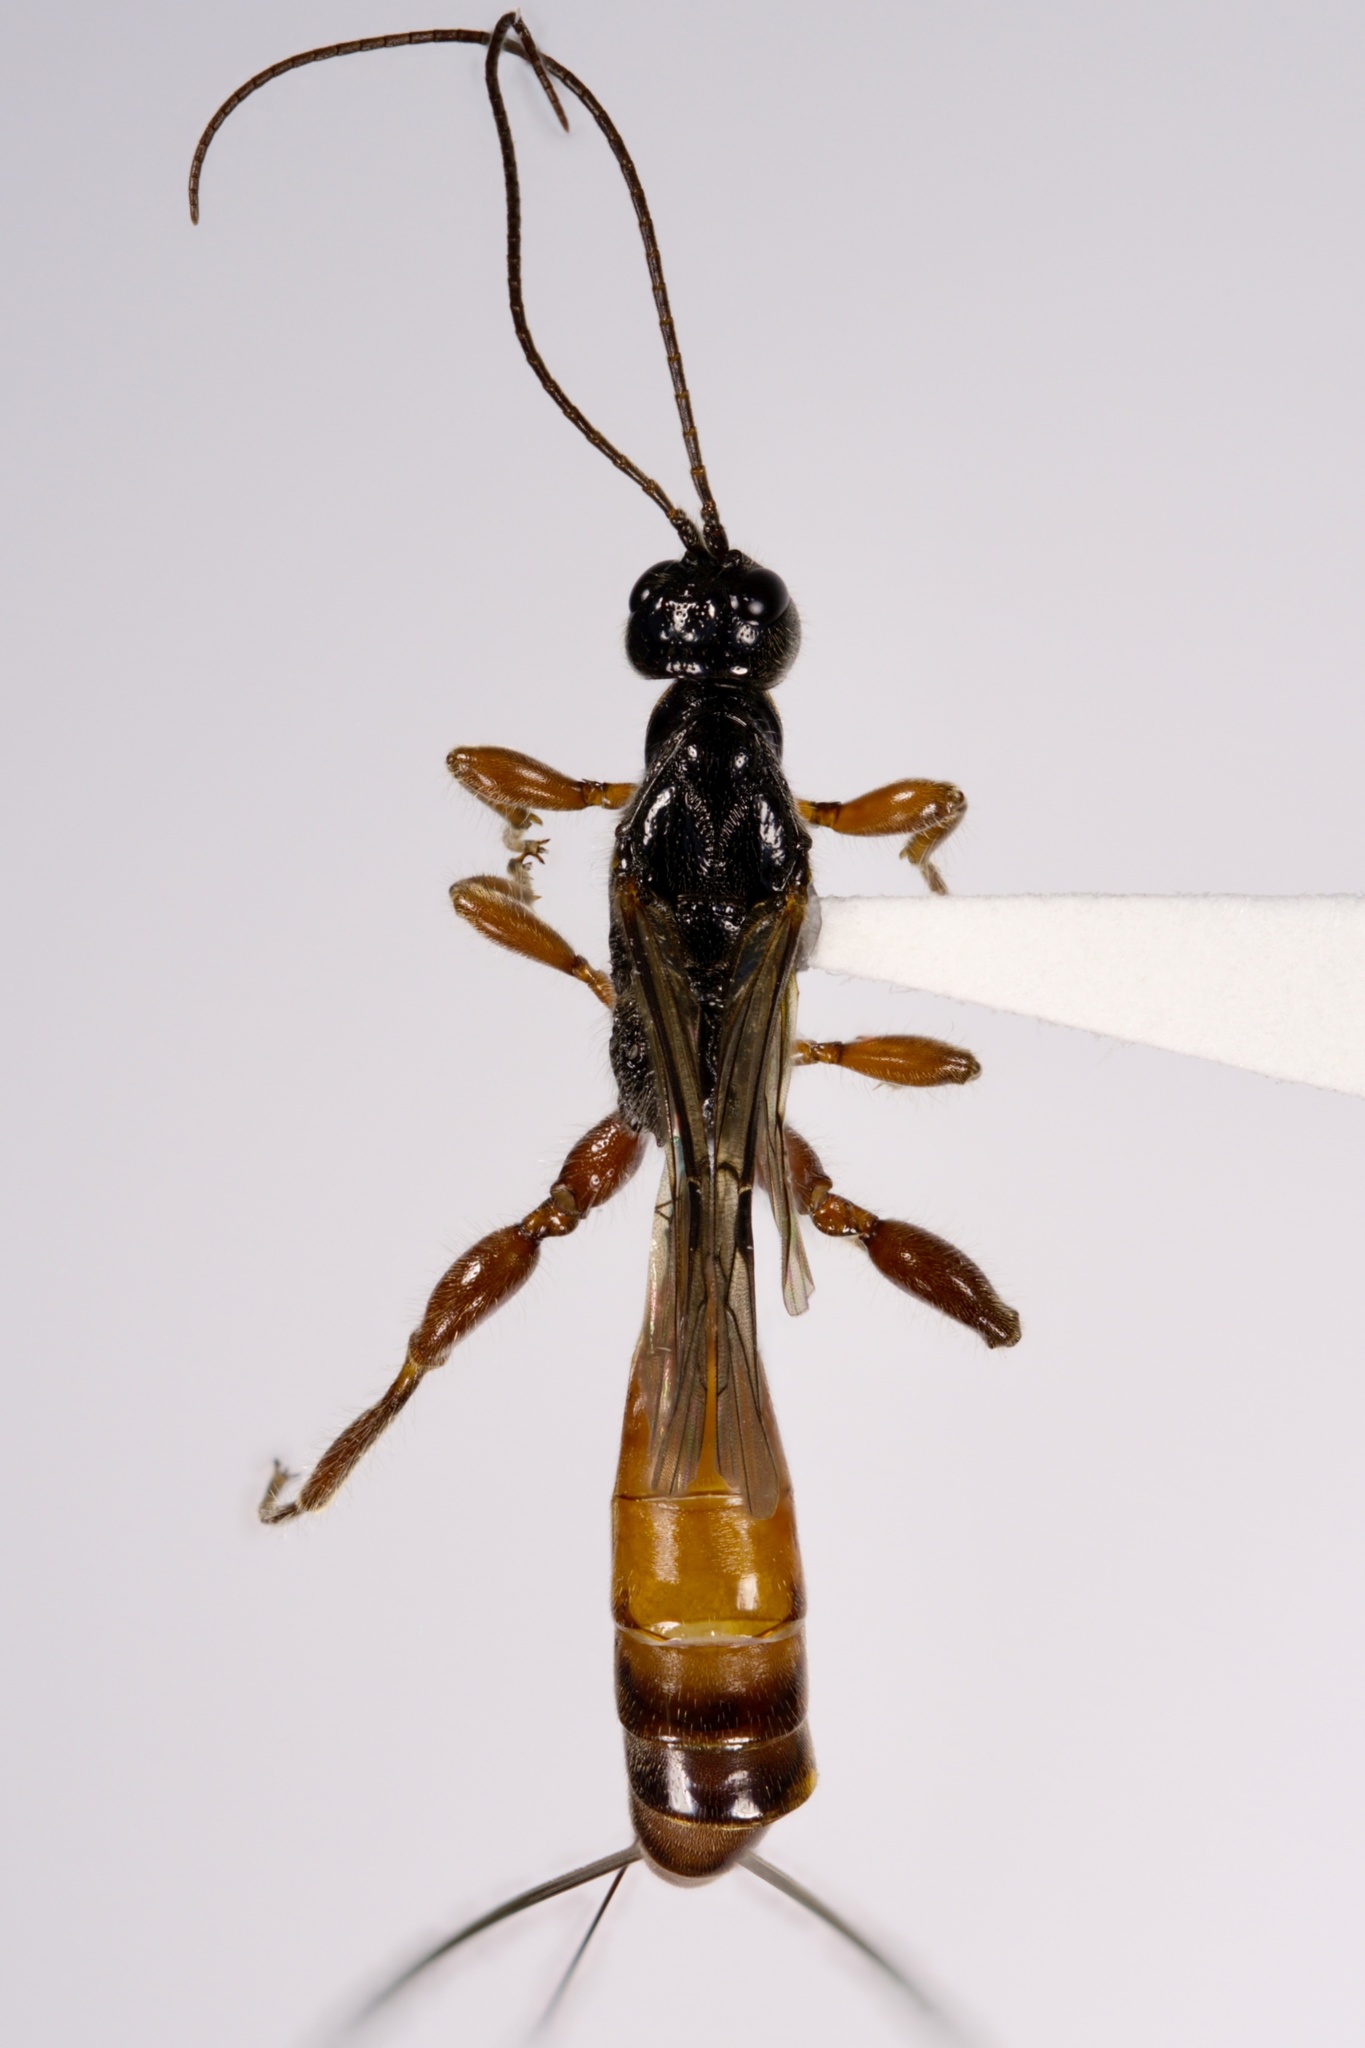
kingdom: Animalia
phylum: Arthropoda
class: Insecta
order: Hymenoptera
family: Ichneumonidae
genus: Odontocolon
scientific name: Odontocolon bicolor
